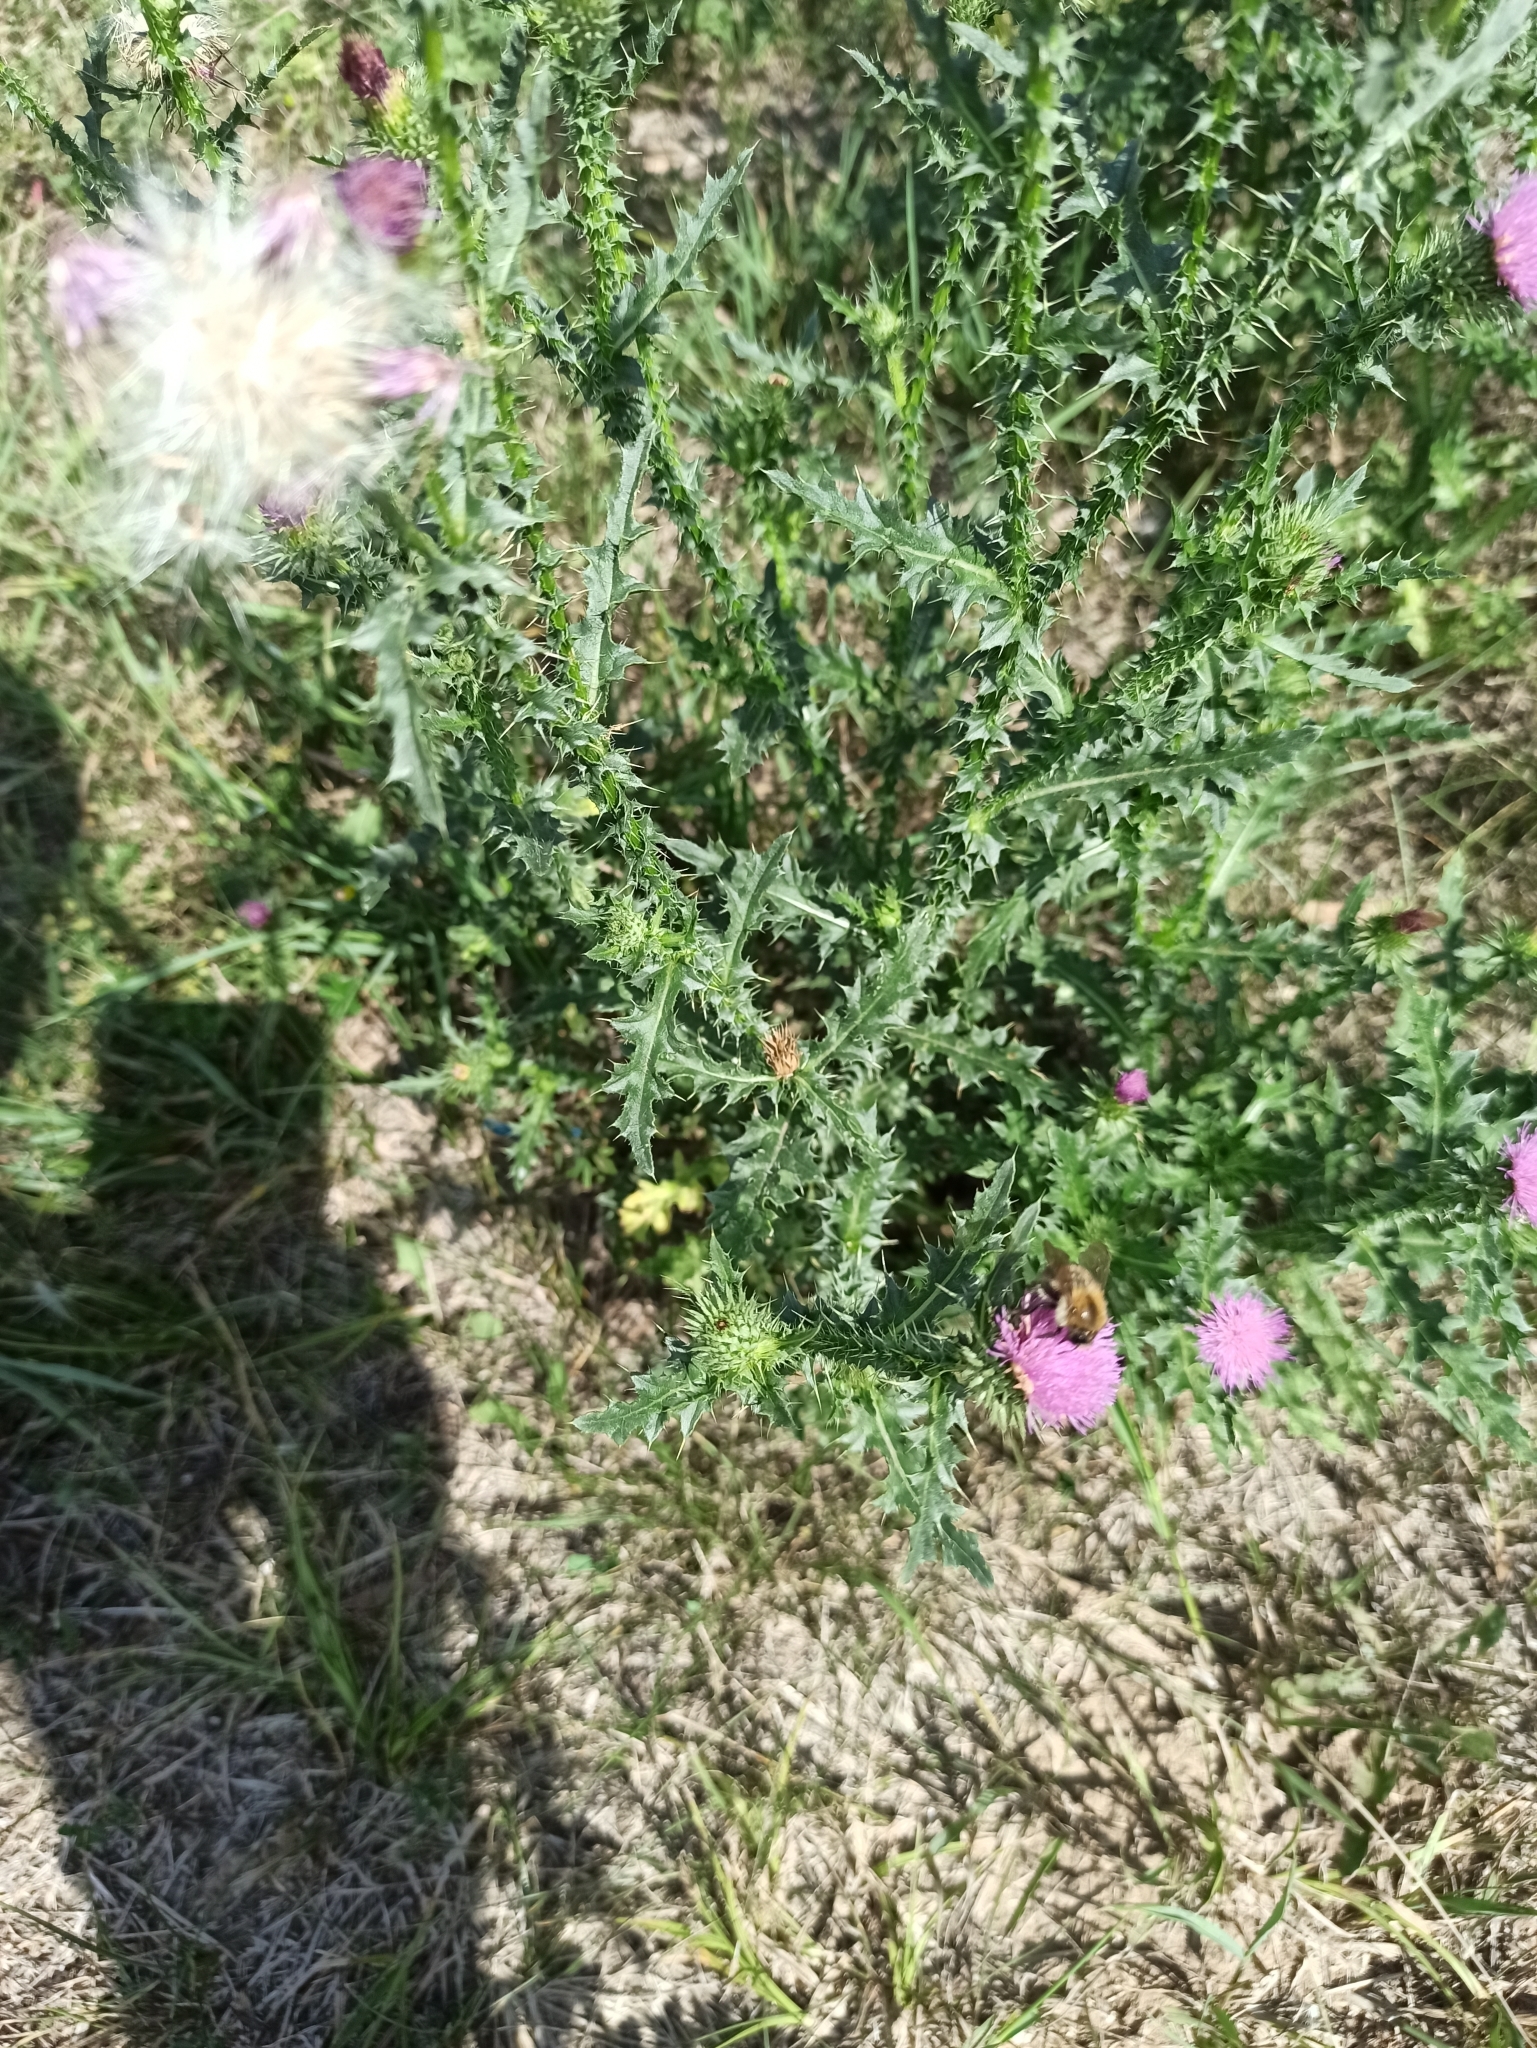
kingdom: Plantae
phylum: Tracheophyta
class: Magnoliopsida
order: Asterales
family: Asteraceae
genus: Carduus
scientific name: Carduus acanthoides
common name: Plumeless thistle
